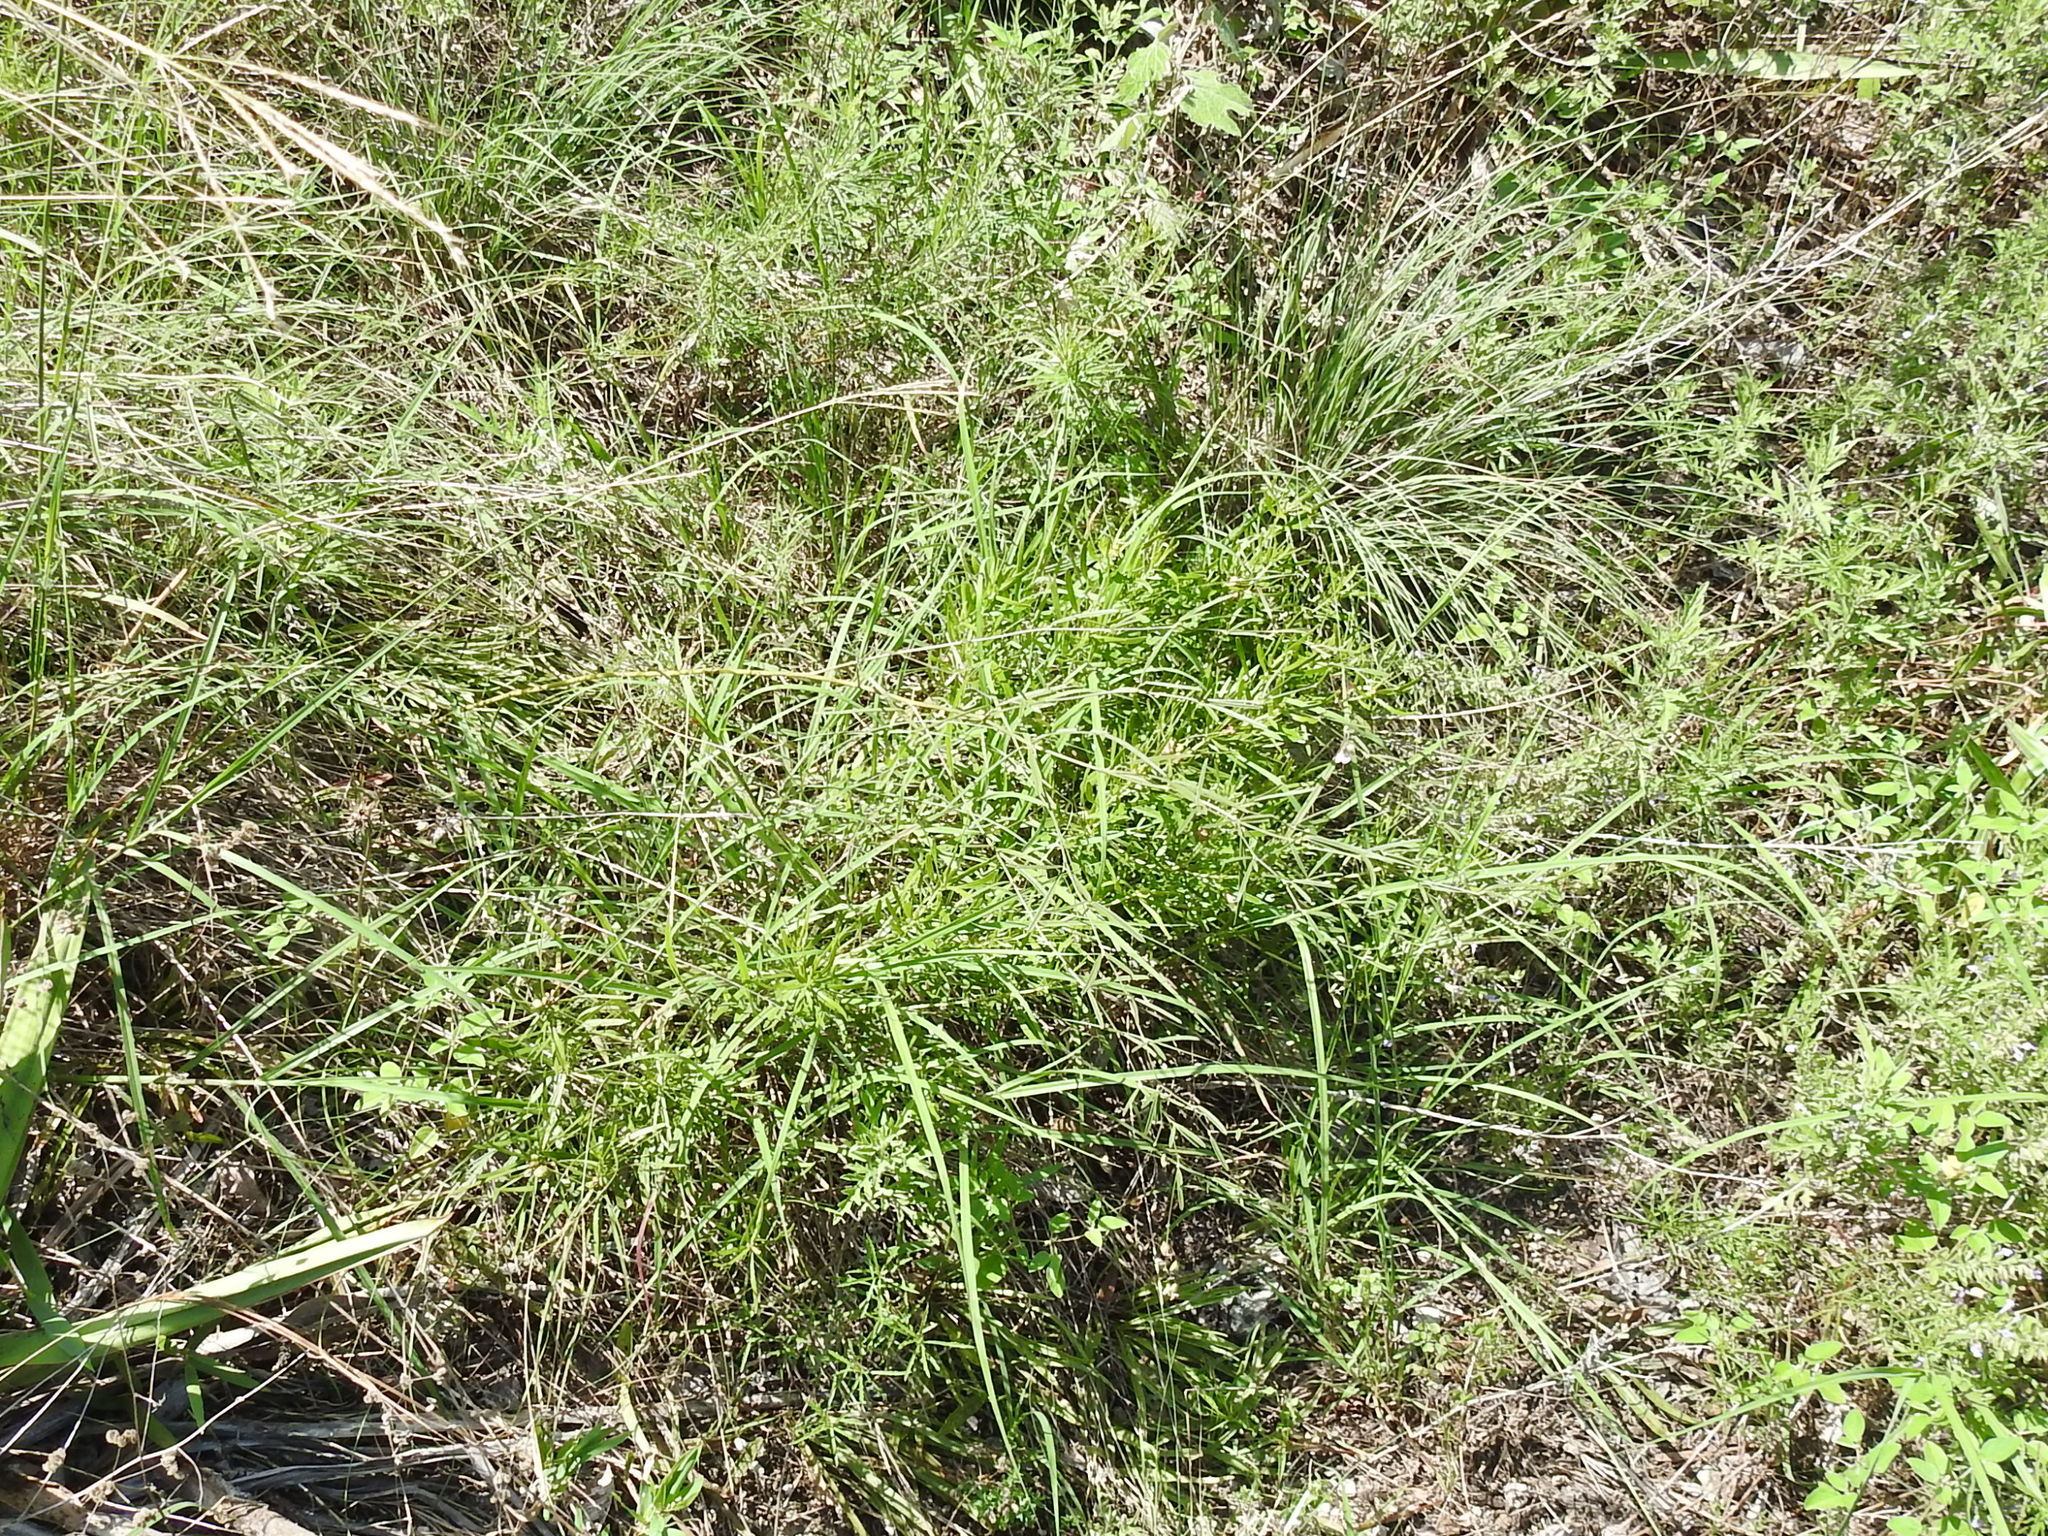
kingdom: Plantae
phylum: Tracheophyta
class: Magnoliopsida
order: Fabales
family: Fabaceae
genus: Pediomelum
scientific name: Pediomelum linearifolium
